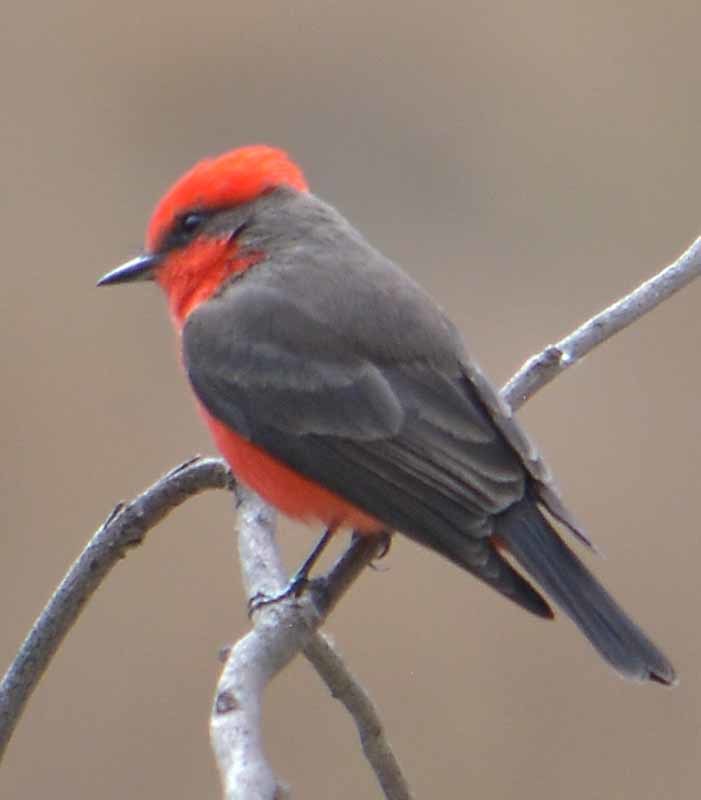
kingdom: Animalia
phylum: Chordata
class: Aves
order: Passeriformes
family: Tyrannidae
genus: Pyrocephalus
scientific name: Pyrocephalus rubinus
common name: Vermilion flycatcher
